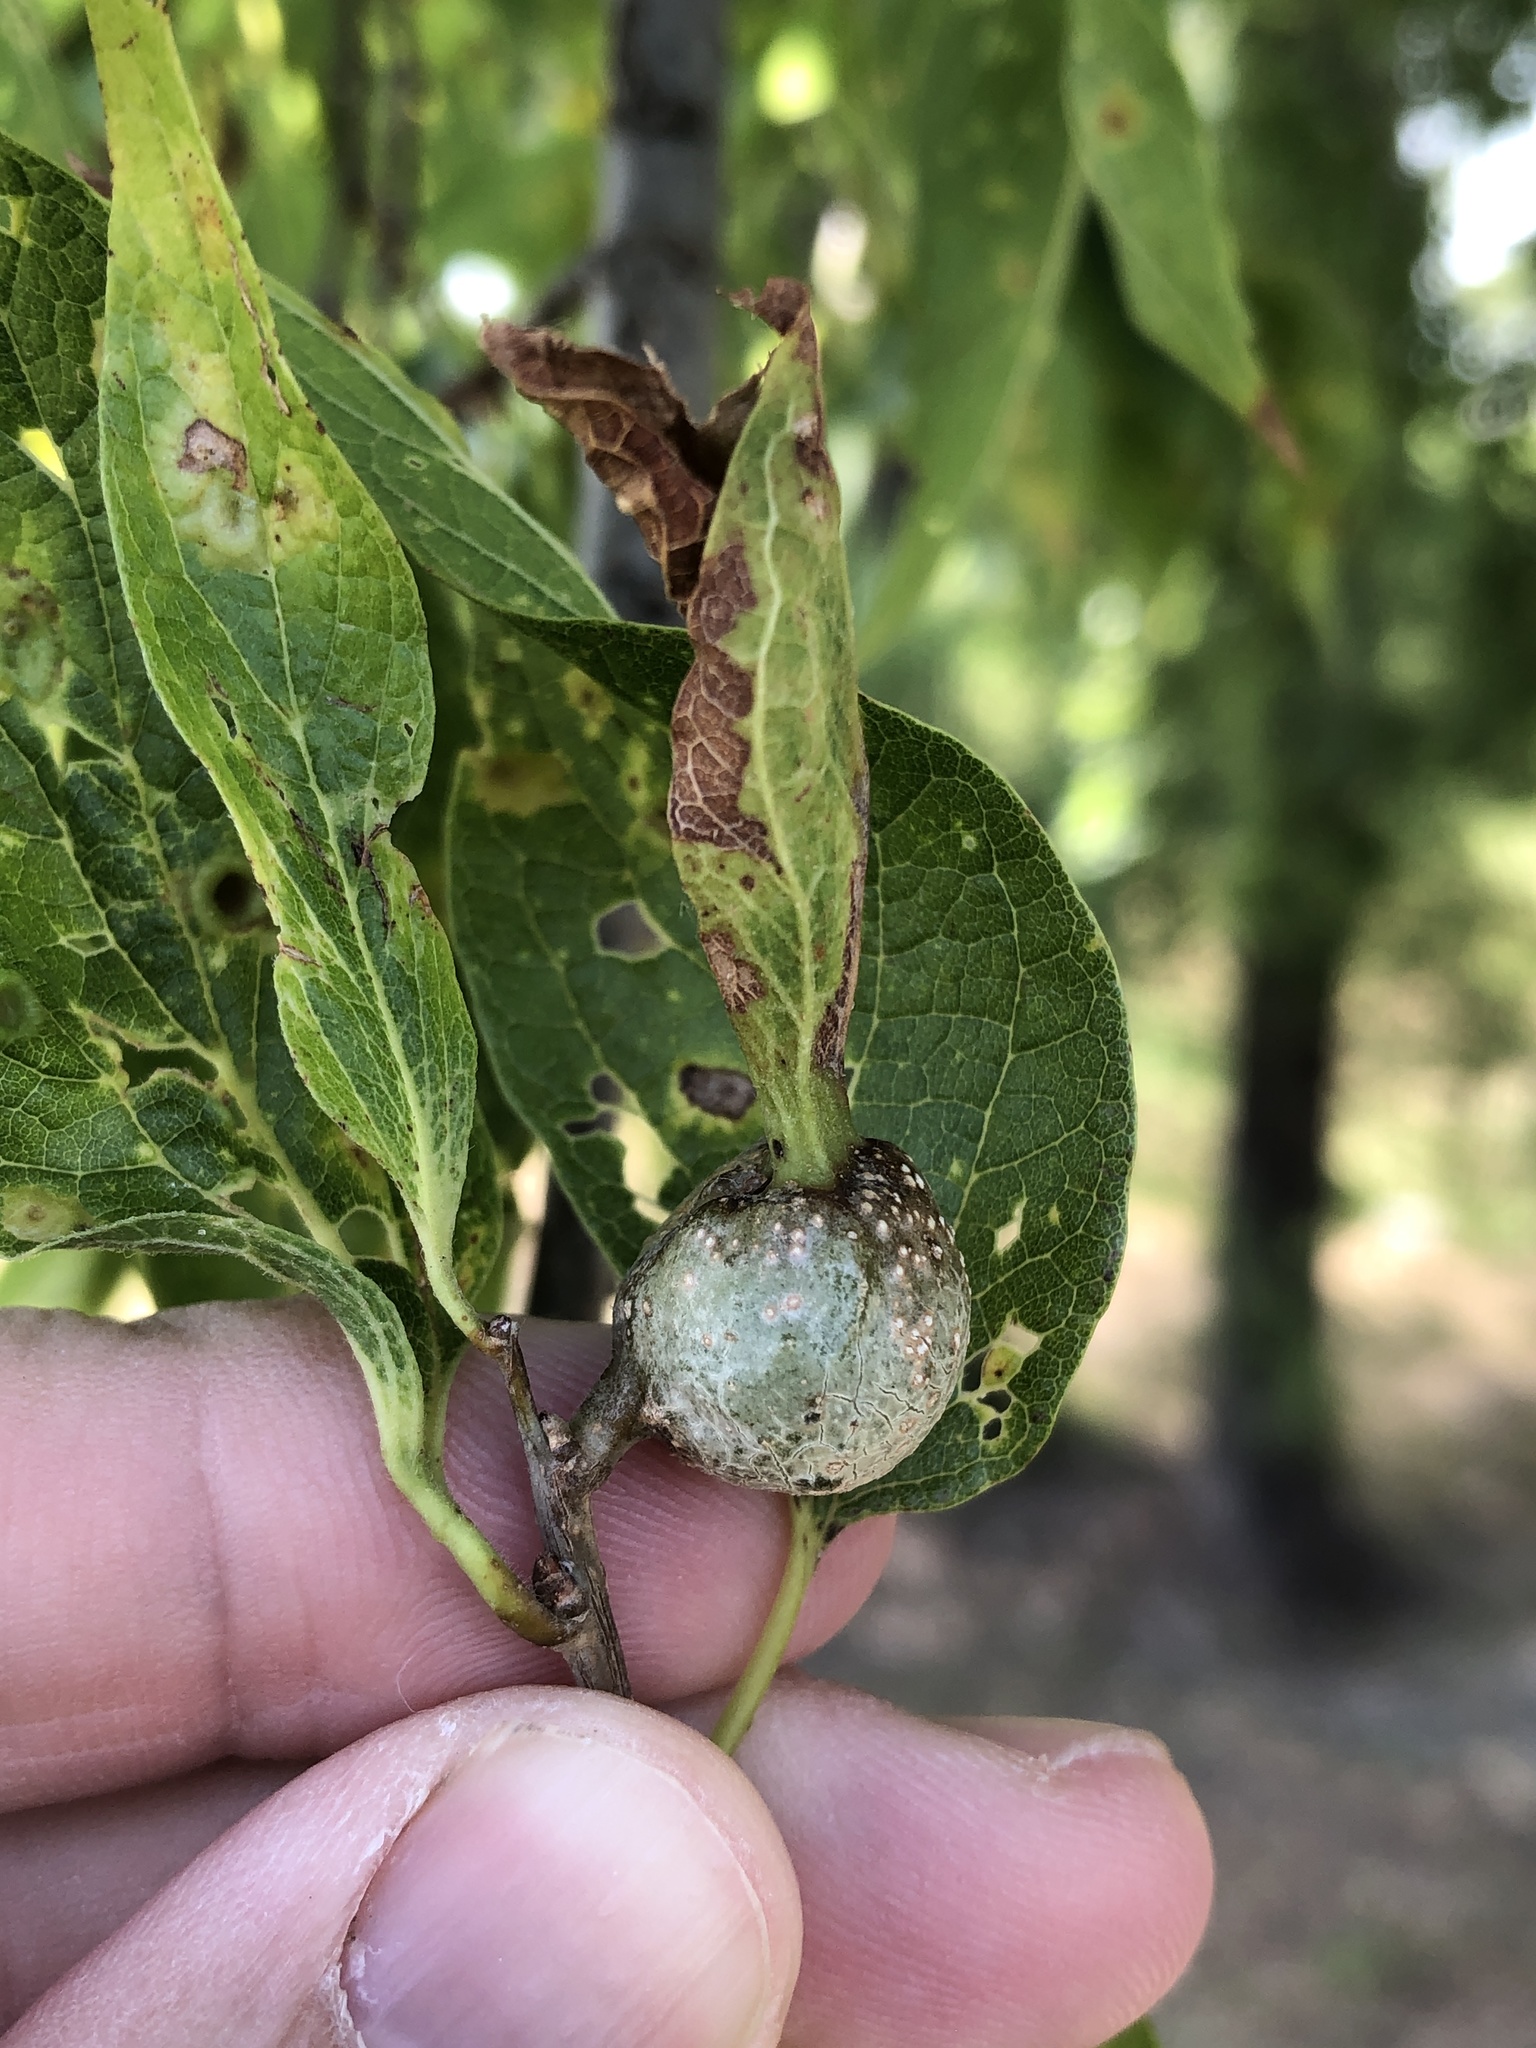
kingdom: Animalia
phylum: Arthropoda
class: Insecta
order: Hemiptera
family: Aphalaridae
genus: Pachypsylla
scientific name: Pachypsylla venusta
